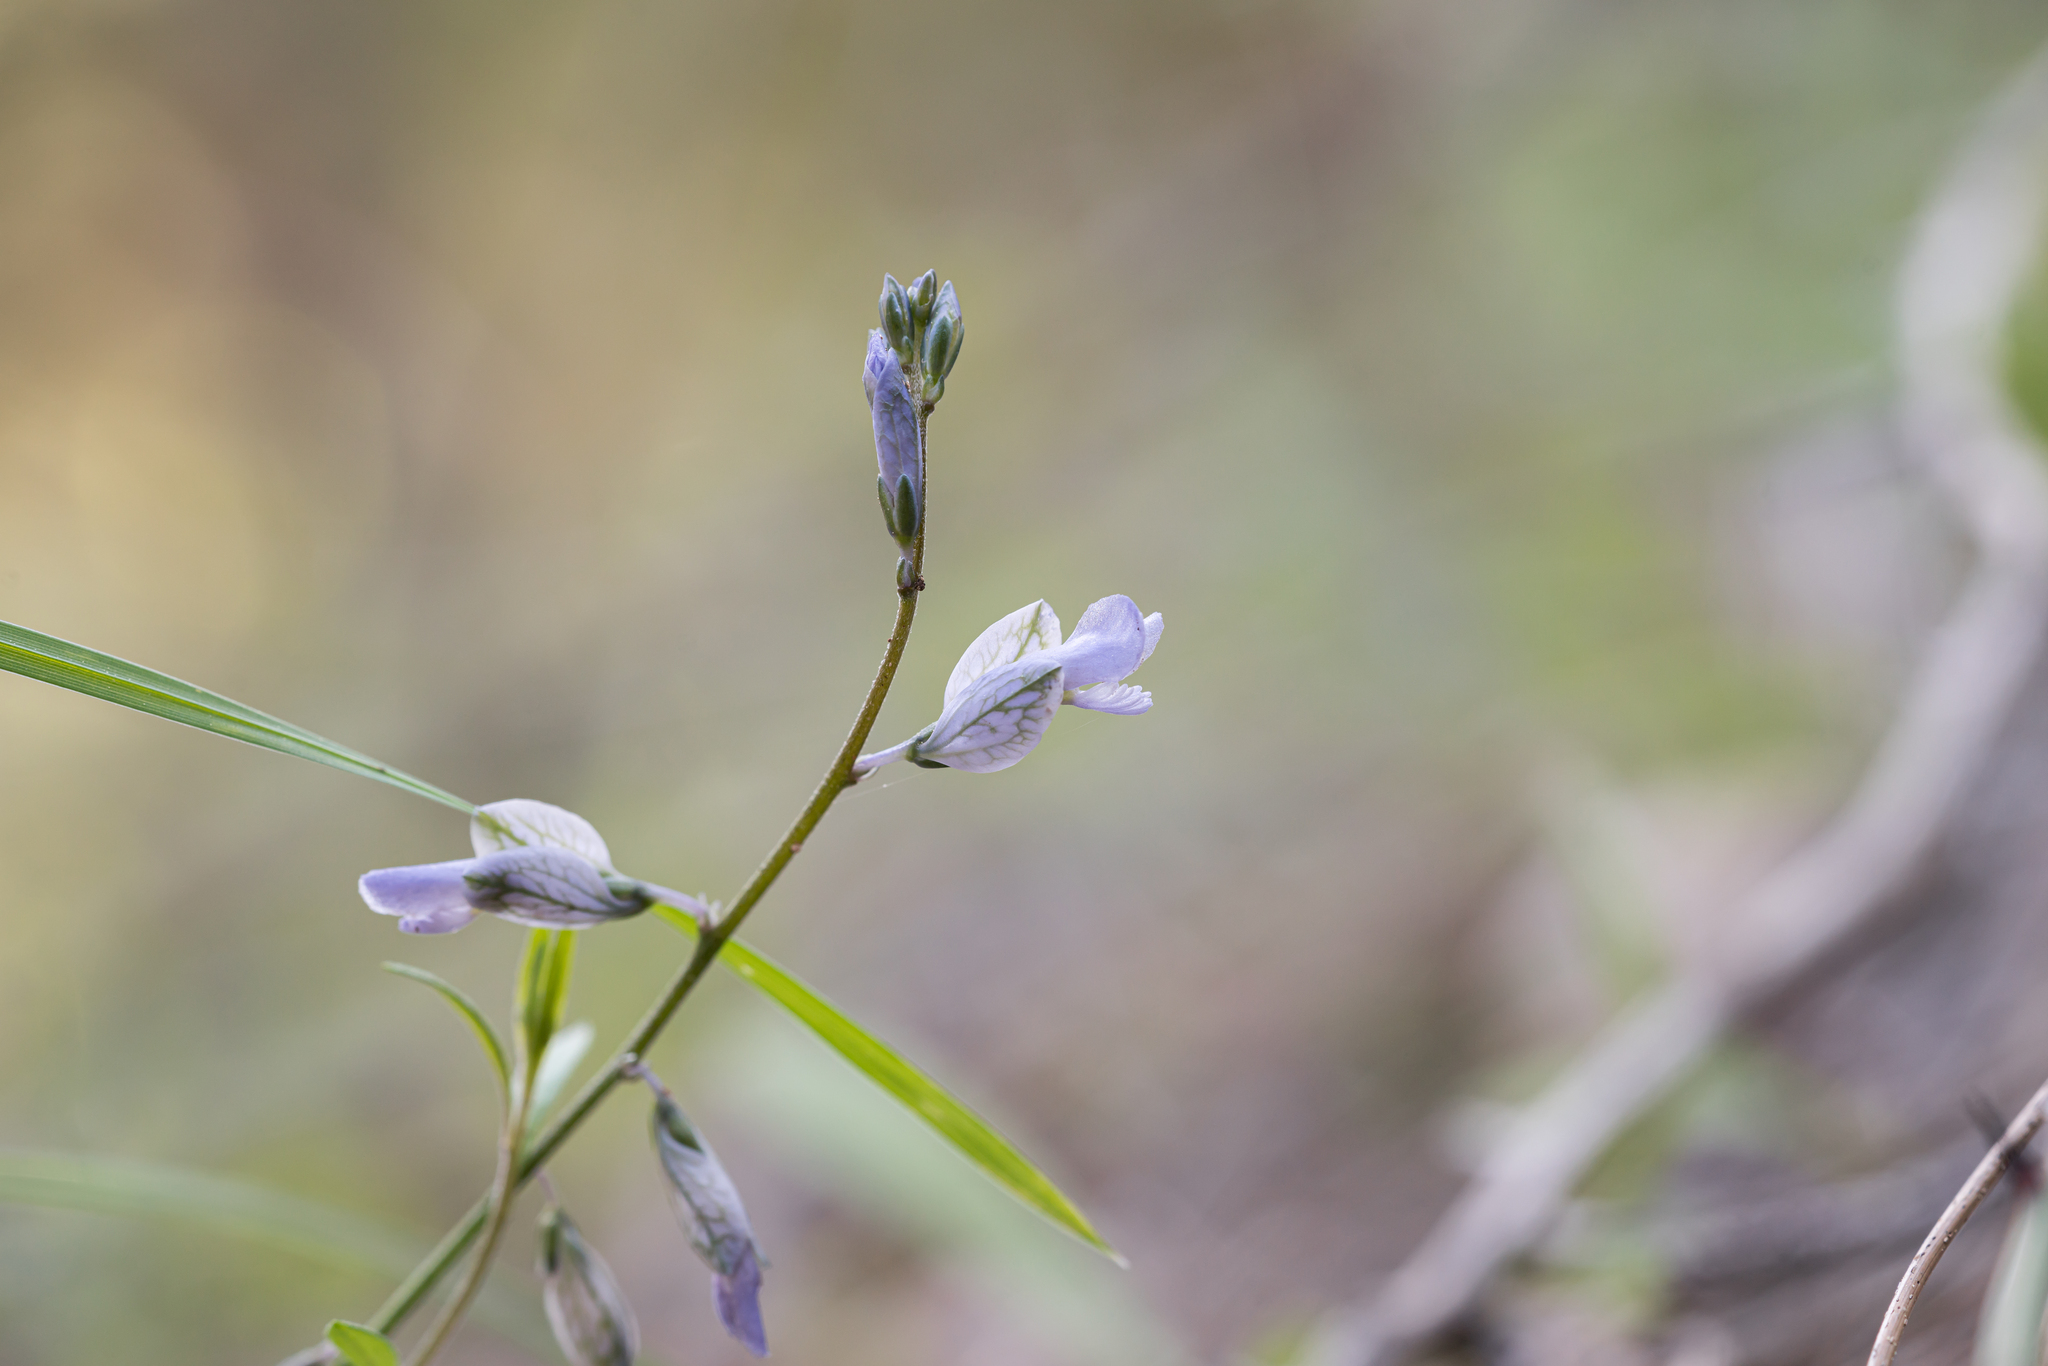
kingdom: Plantae
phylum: Tracheophyta
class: Magnoliopsida
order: Fabales
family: Polygalaceae
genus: Polygala
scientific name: Polygala venulosa
